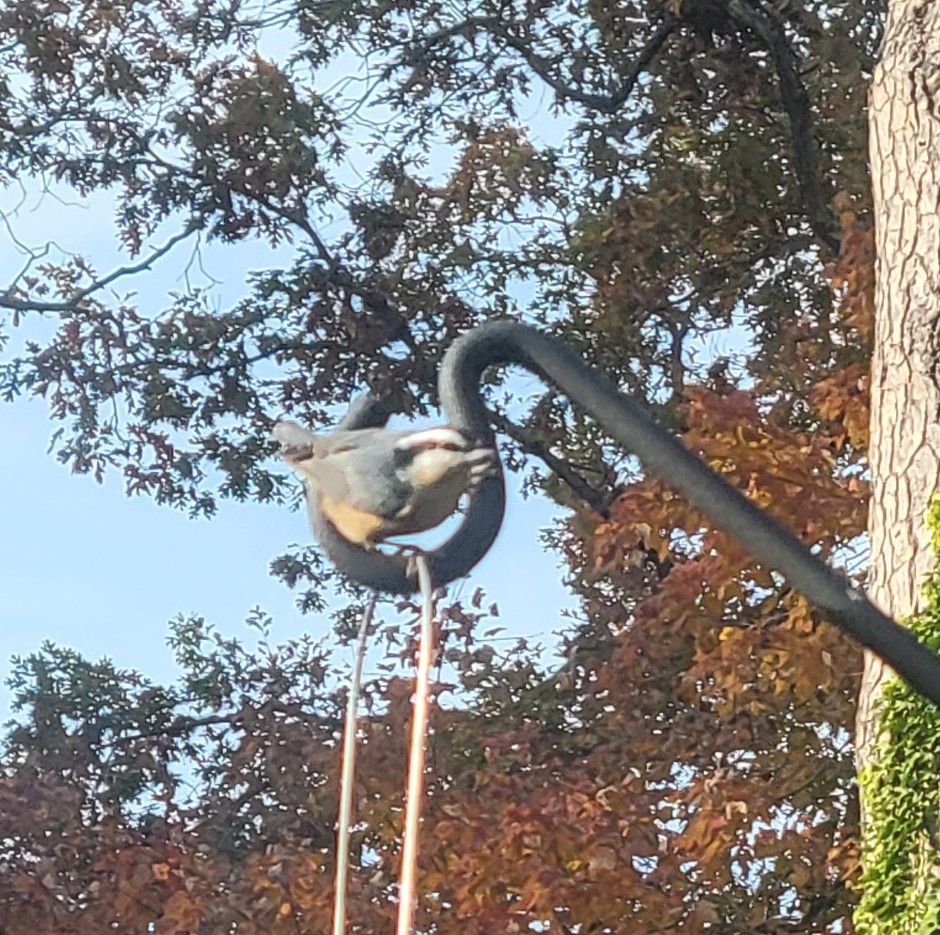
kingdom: Animalia
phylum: Chordata
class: Aves
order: Passeriformes
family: Sittidae
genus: Sitta
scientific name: Sitta canadensis
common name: Red-breasted nuthatch
